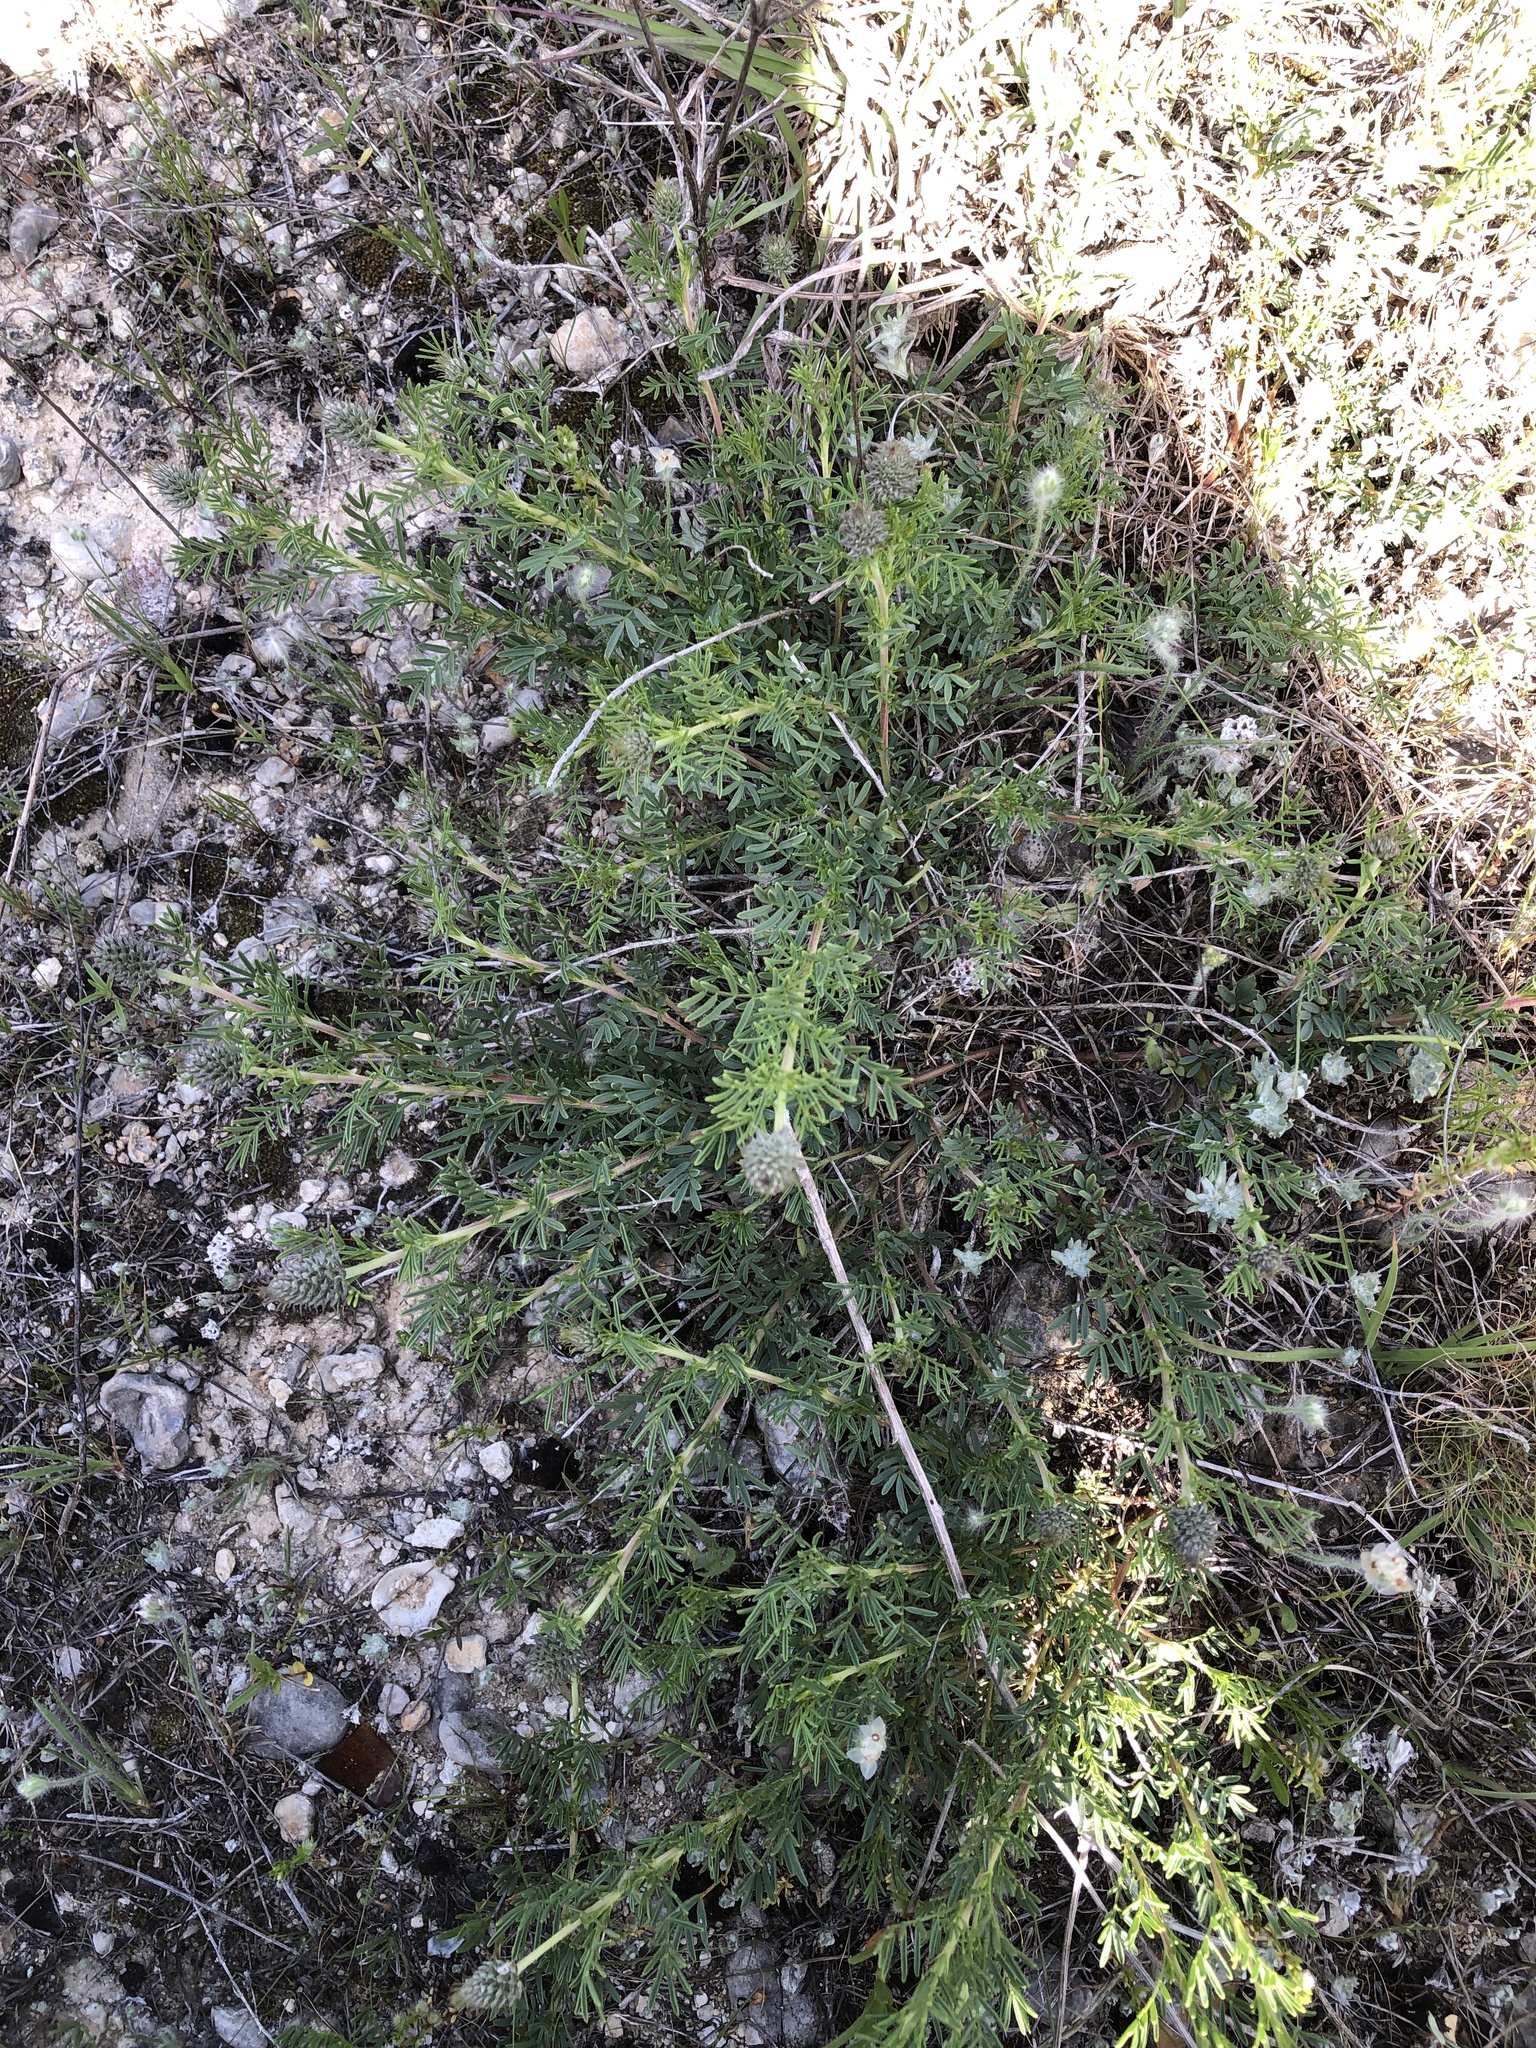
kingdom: Plantae
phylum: Tracheophyta
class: Magnoliopsida
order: Fabales
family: Fabaceae
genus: Dalea
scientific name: Dalea reverchonii
